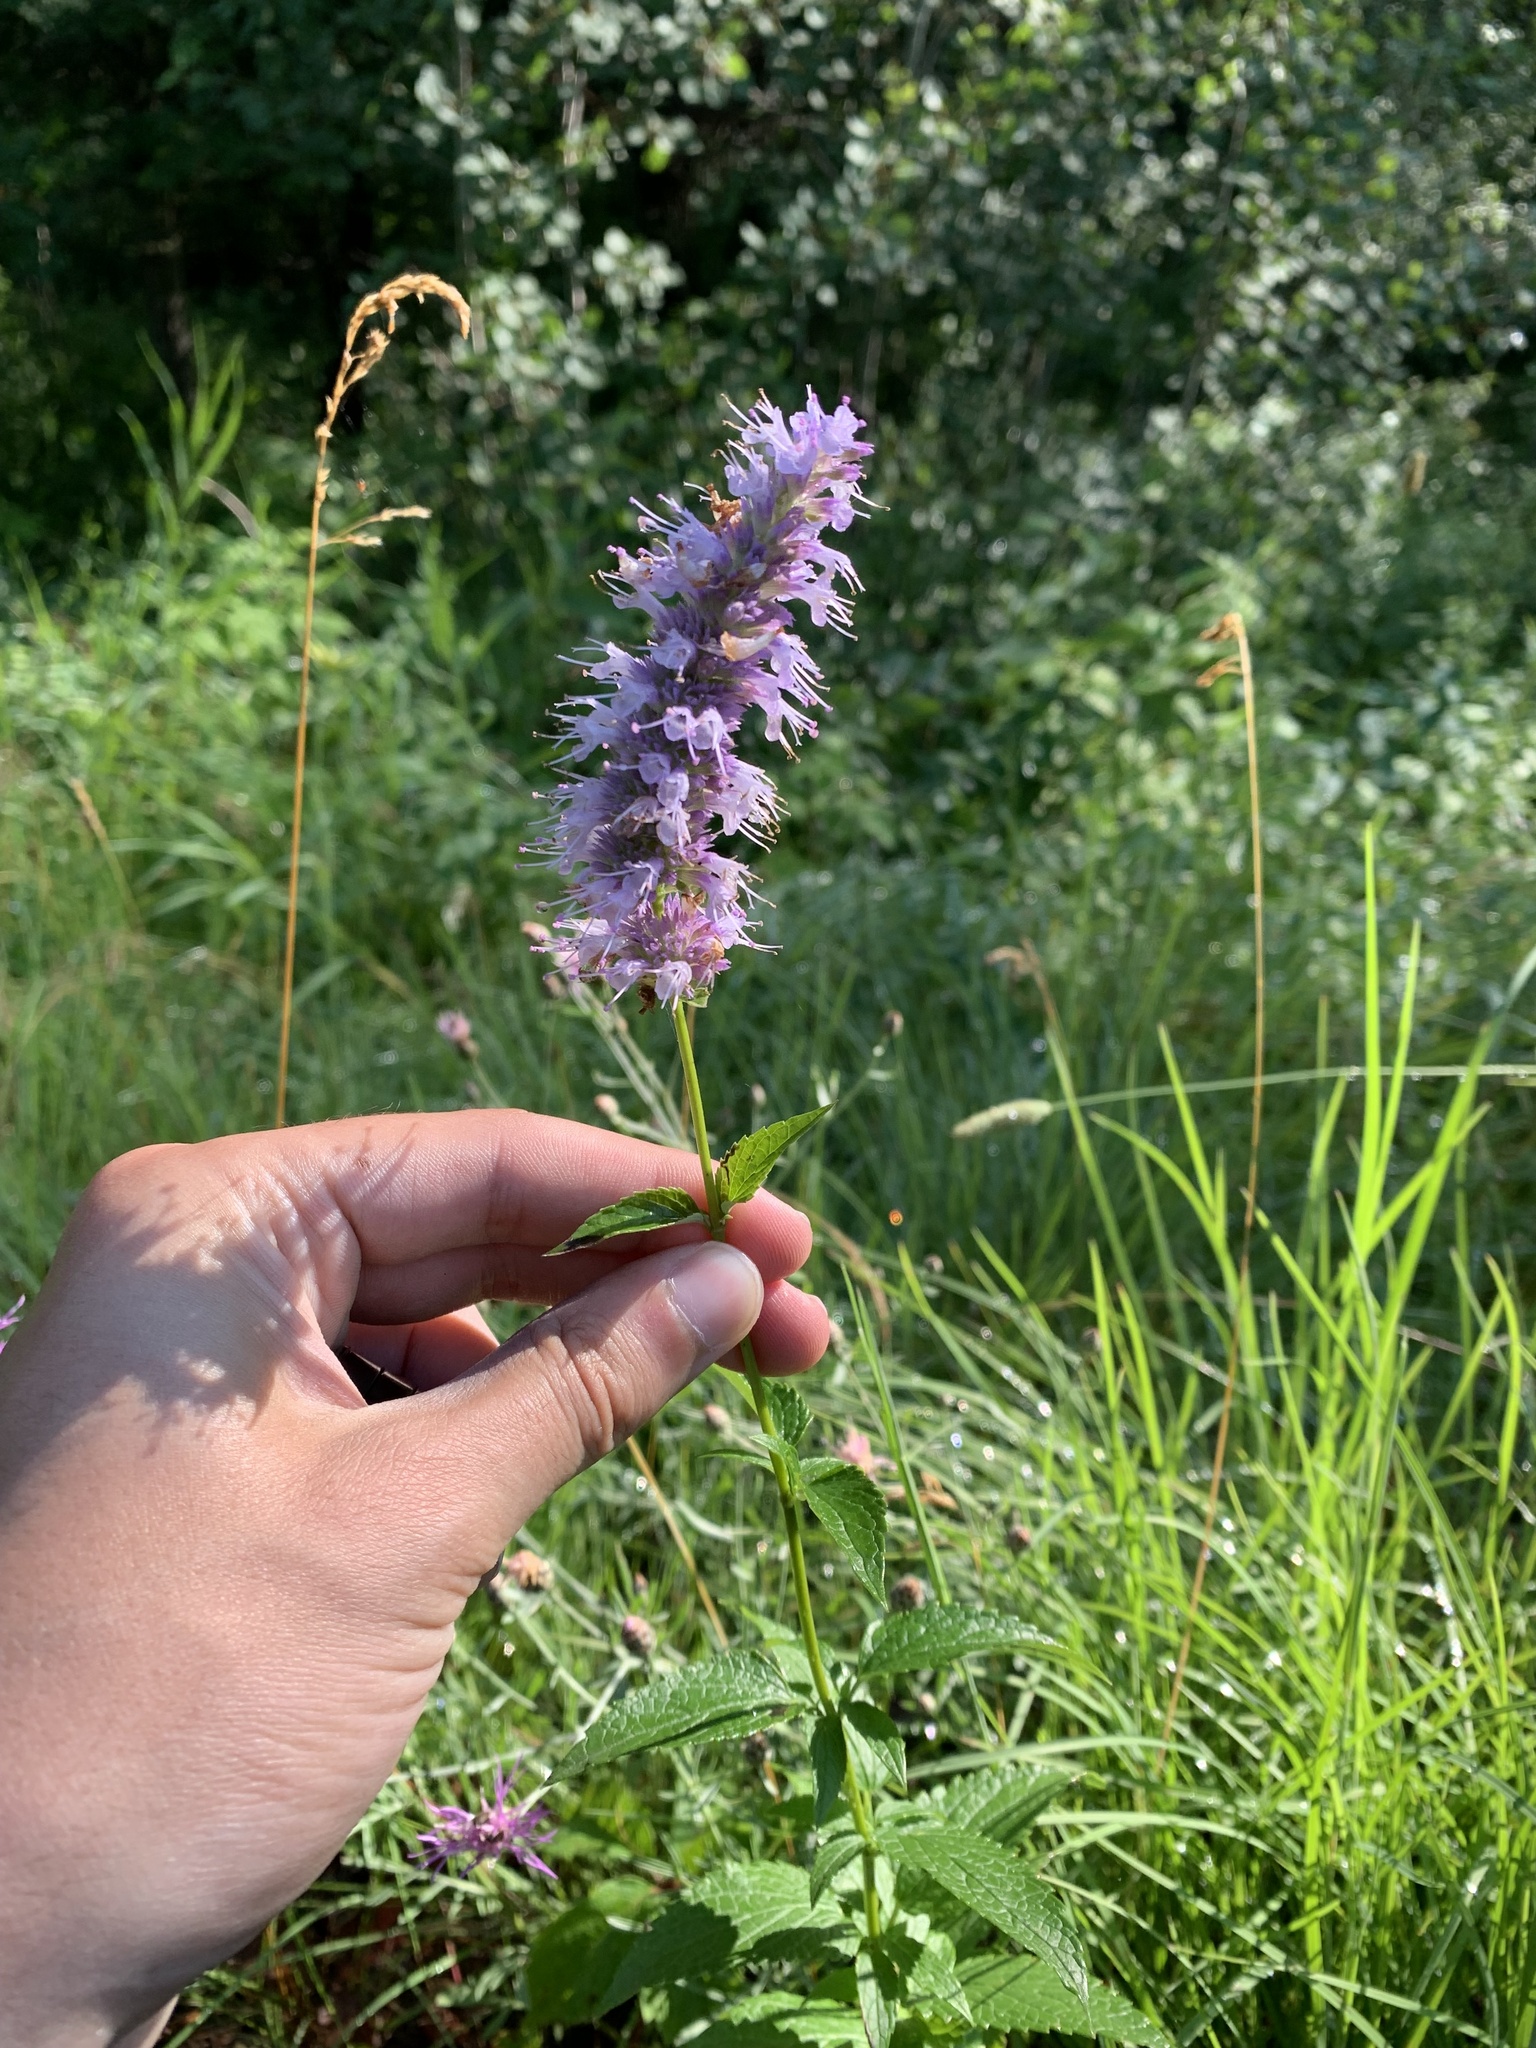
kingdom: Plantae
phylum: Tracheophyta
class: Magnoliopsida
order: Lamiales
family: Lamiaceae
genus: Agastache
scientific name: Agastache foeniculum
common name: Anise hyssop
